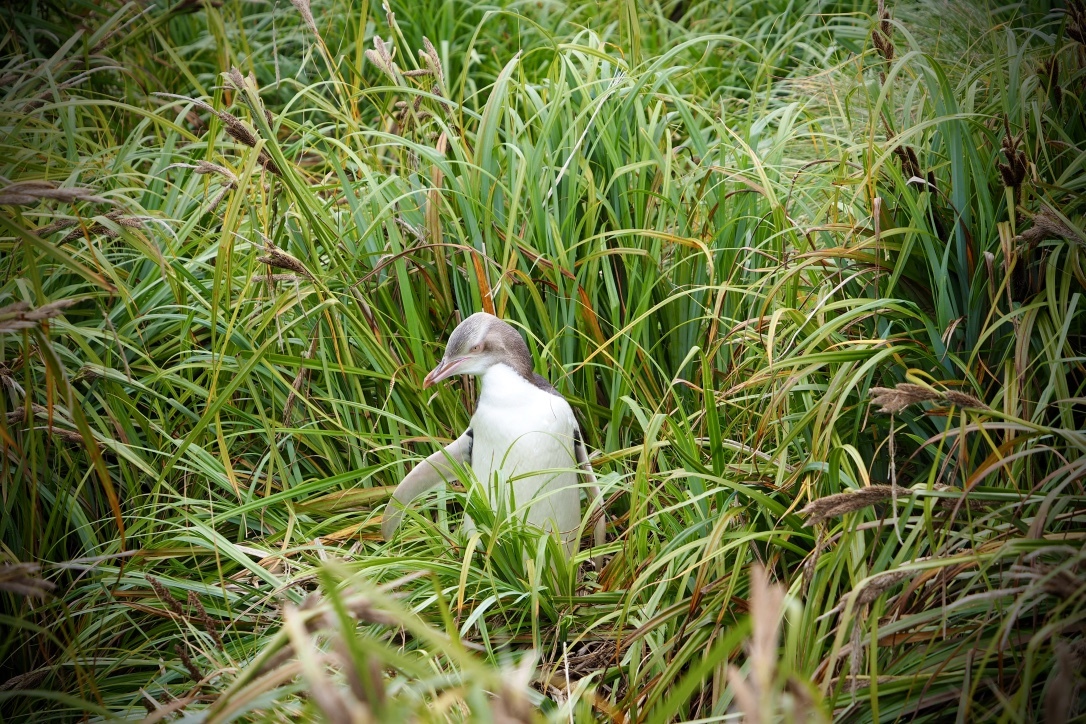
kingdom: Animalia
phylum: Chordata
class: Aves
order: Sphenisciformes
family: Spheniscidae
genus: Megadyptes
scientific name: Megadyptes antipodes
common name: Yellow-eyed penguin
